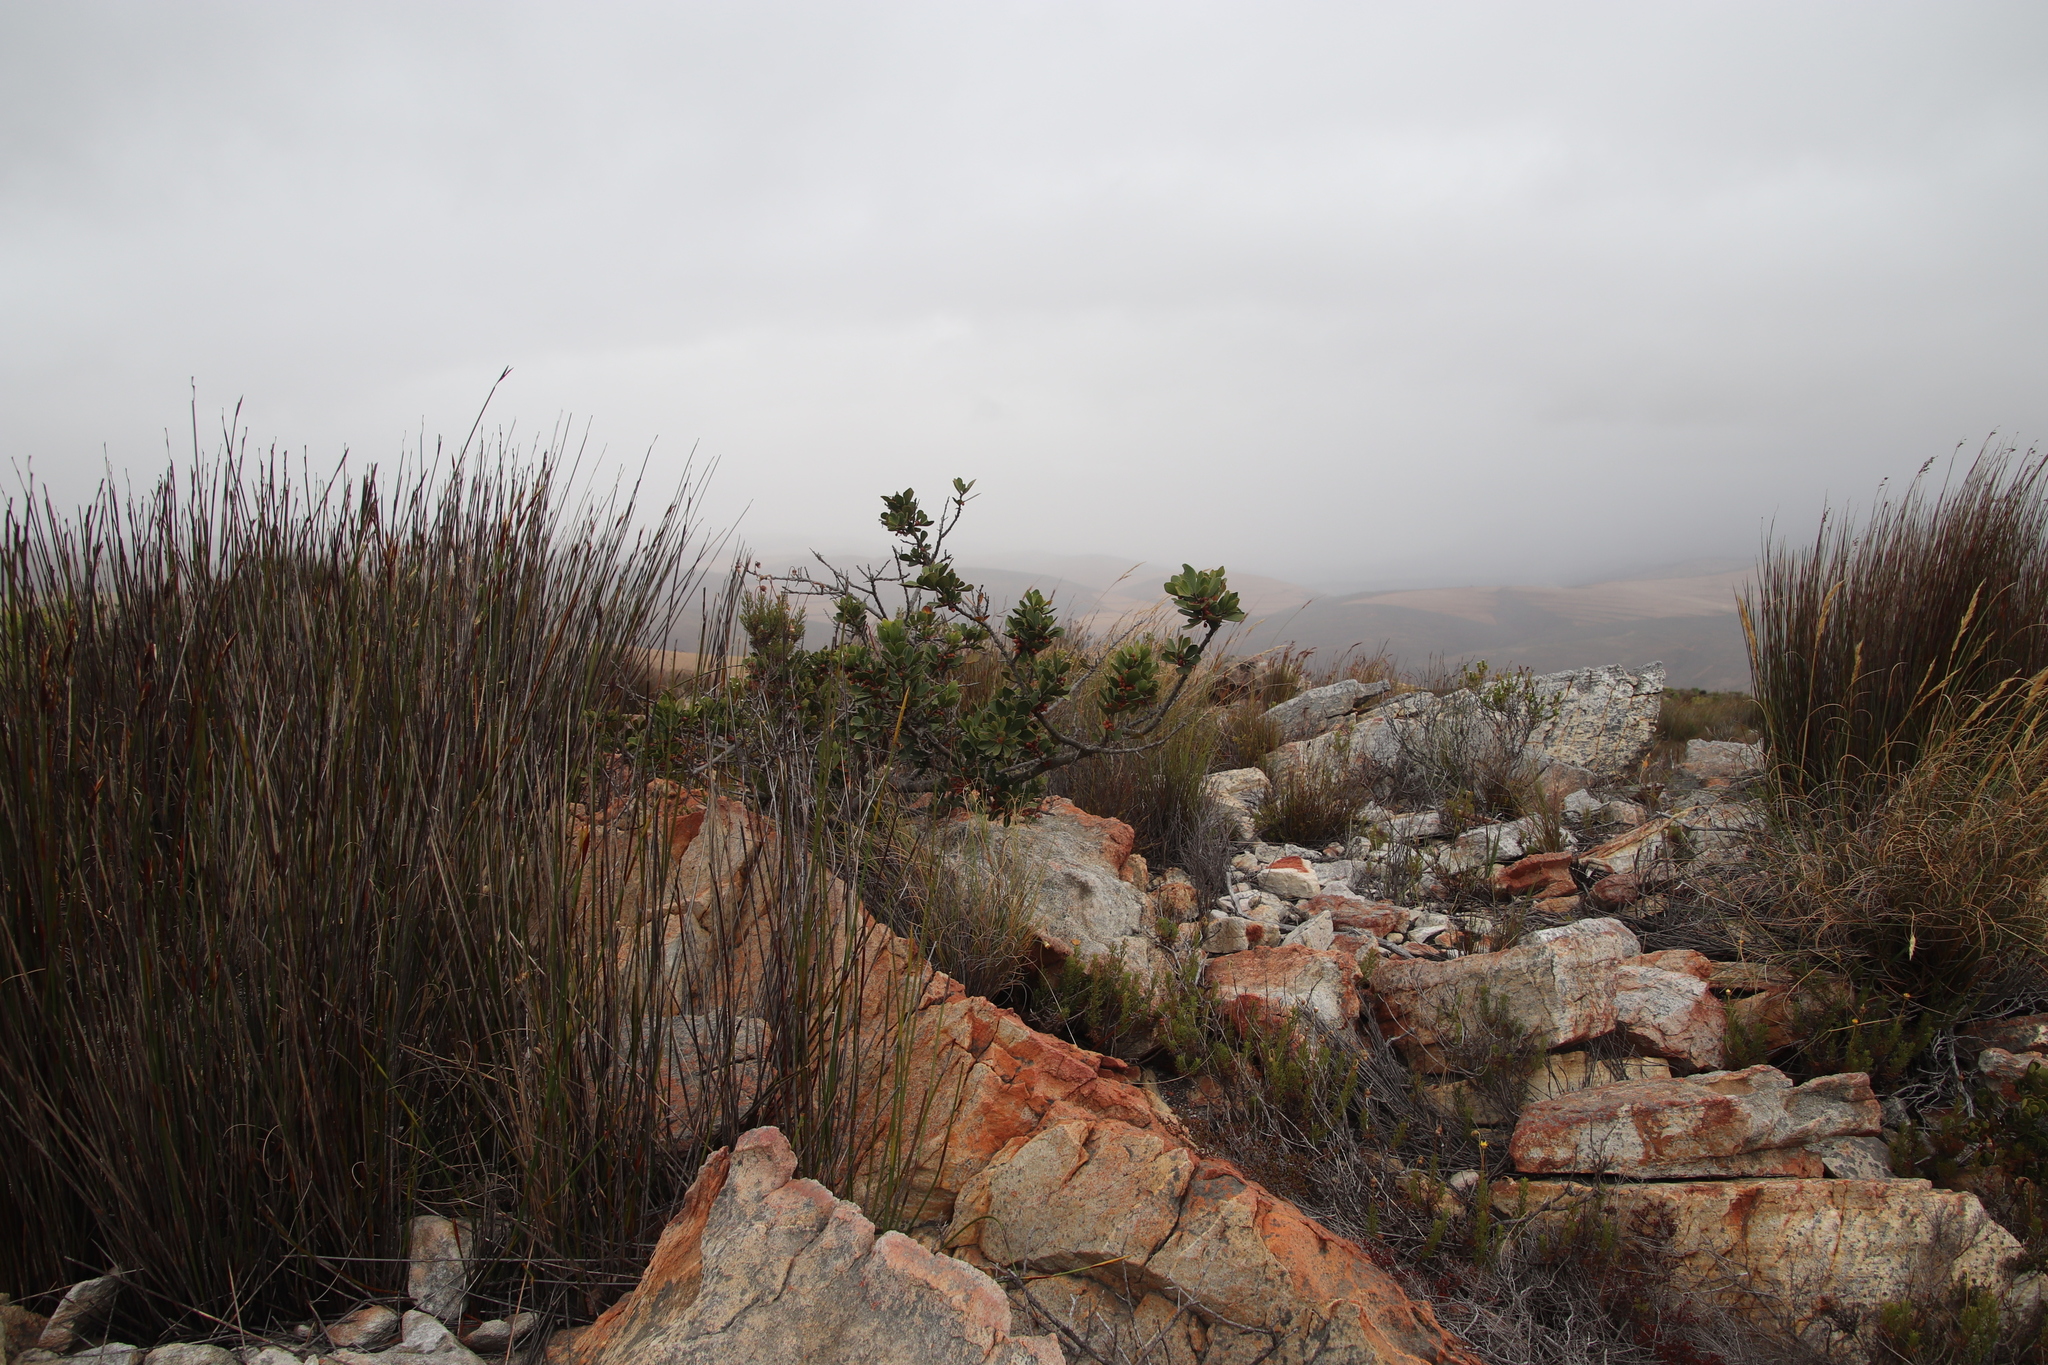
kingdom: Plantae
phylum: Tracheophyta
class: Magnoliopsida
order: Sapindales
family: Anacardiaceae
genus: Searsia
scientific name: Searsia scytophylla
